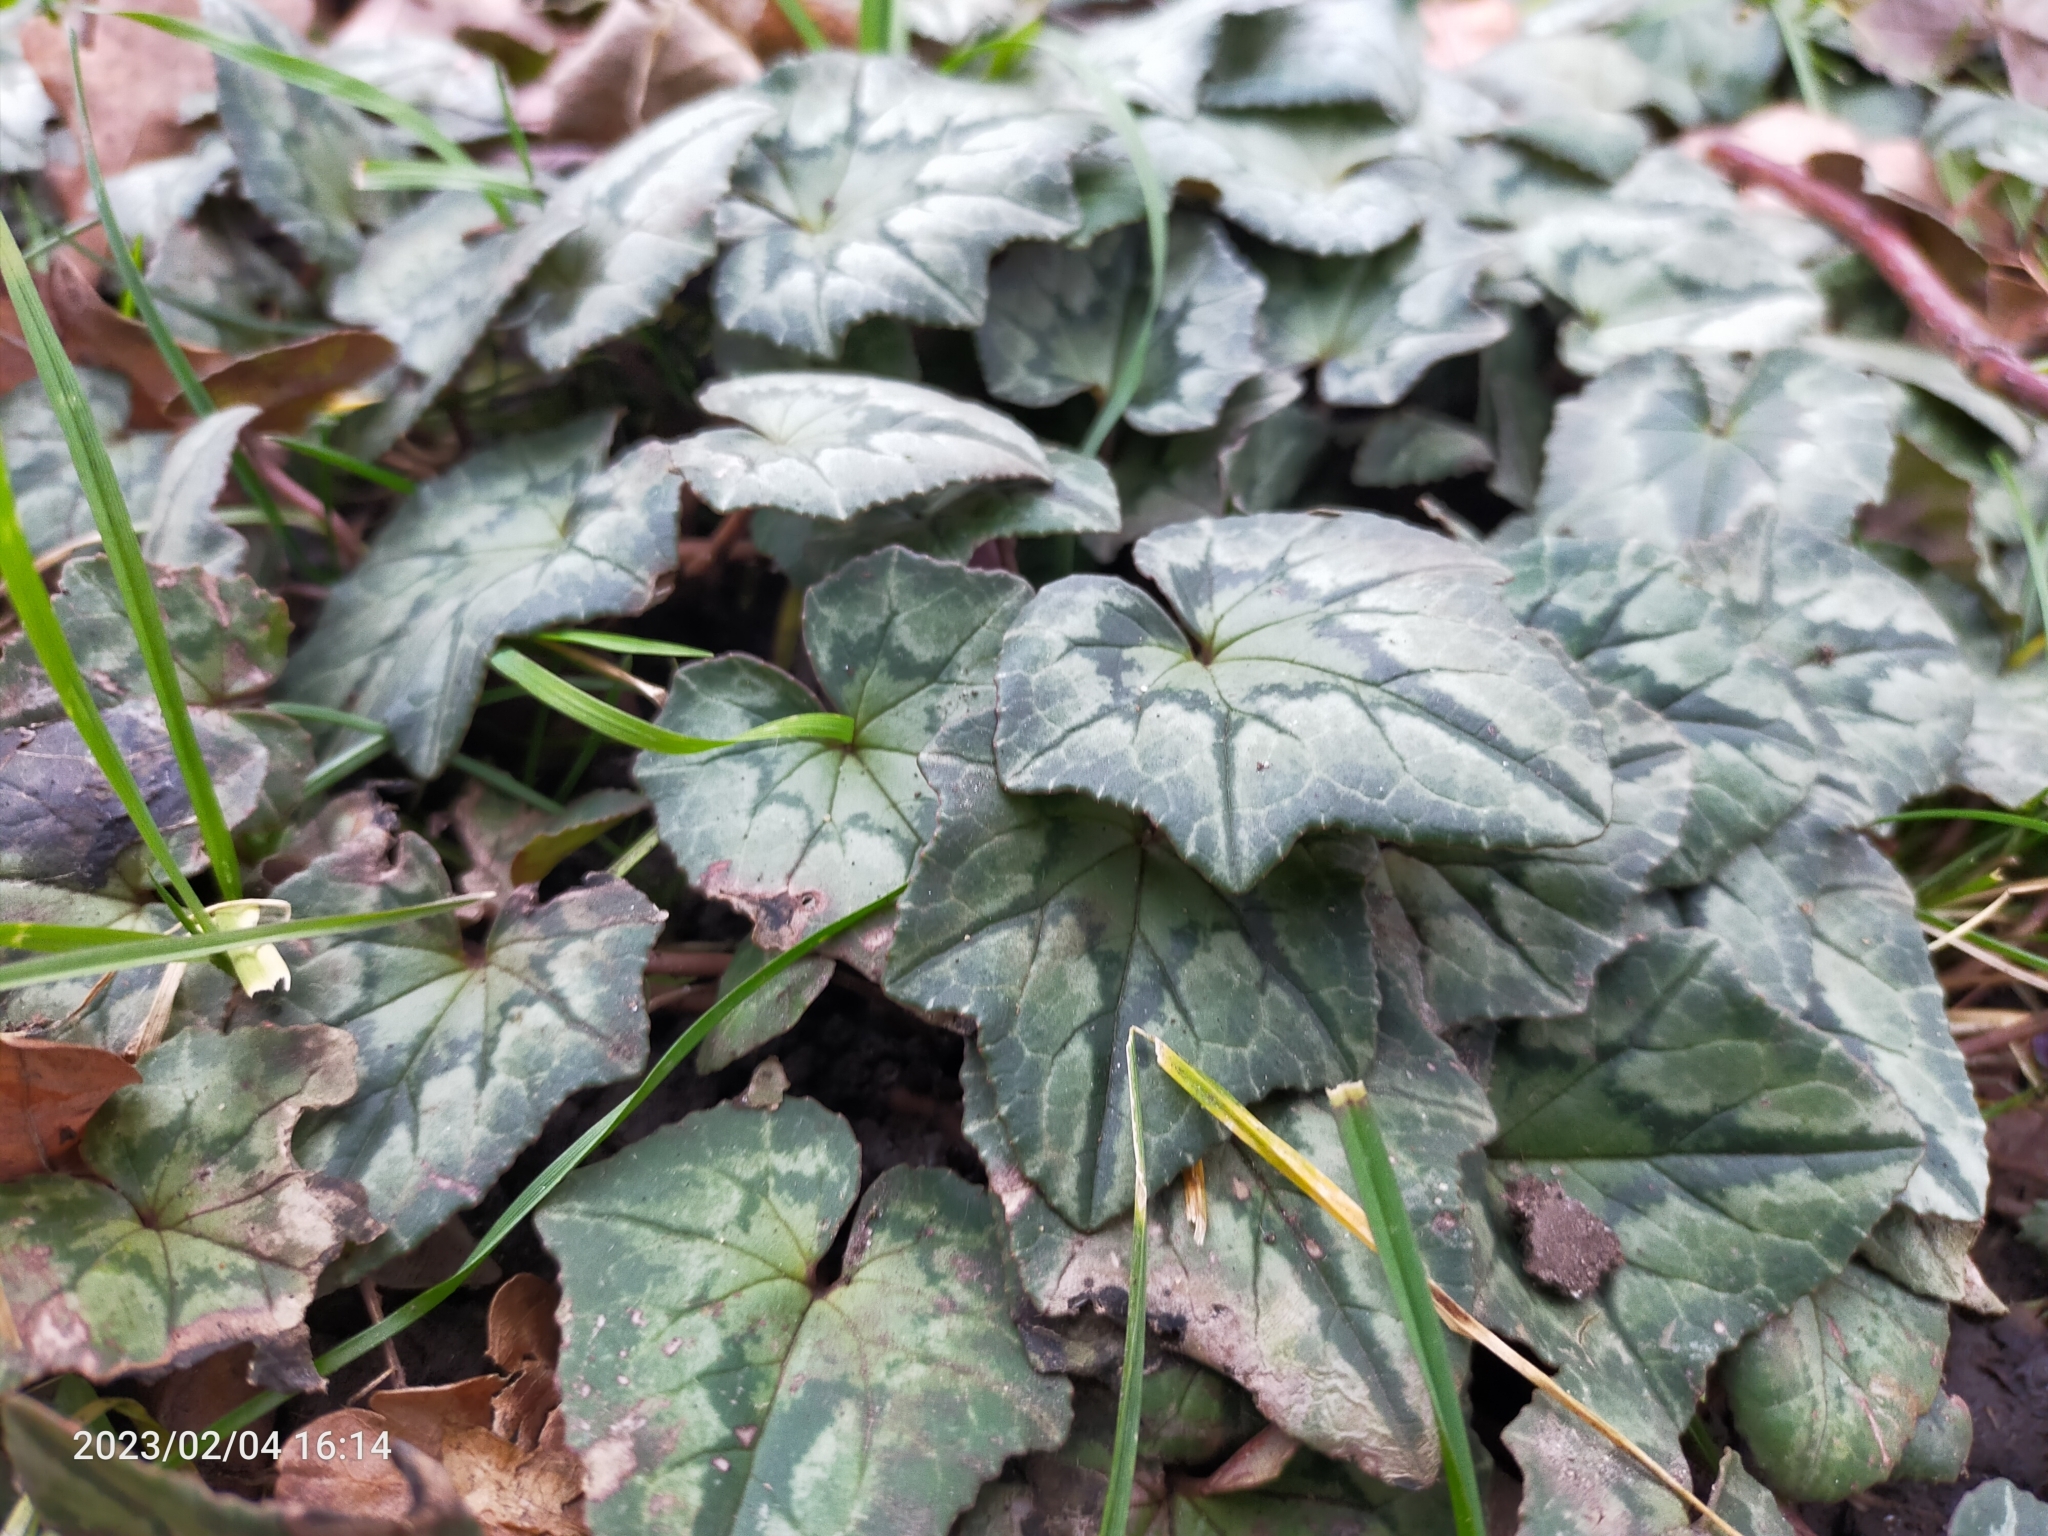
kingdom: Plantae
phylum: Tracheophyta
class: Magnoliopsida
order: Ericales
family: Primulaceae
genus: Cyclamen
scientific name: Cyclamen hederifolium
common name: Sowbread
